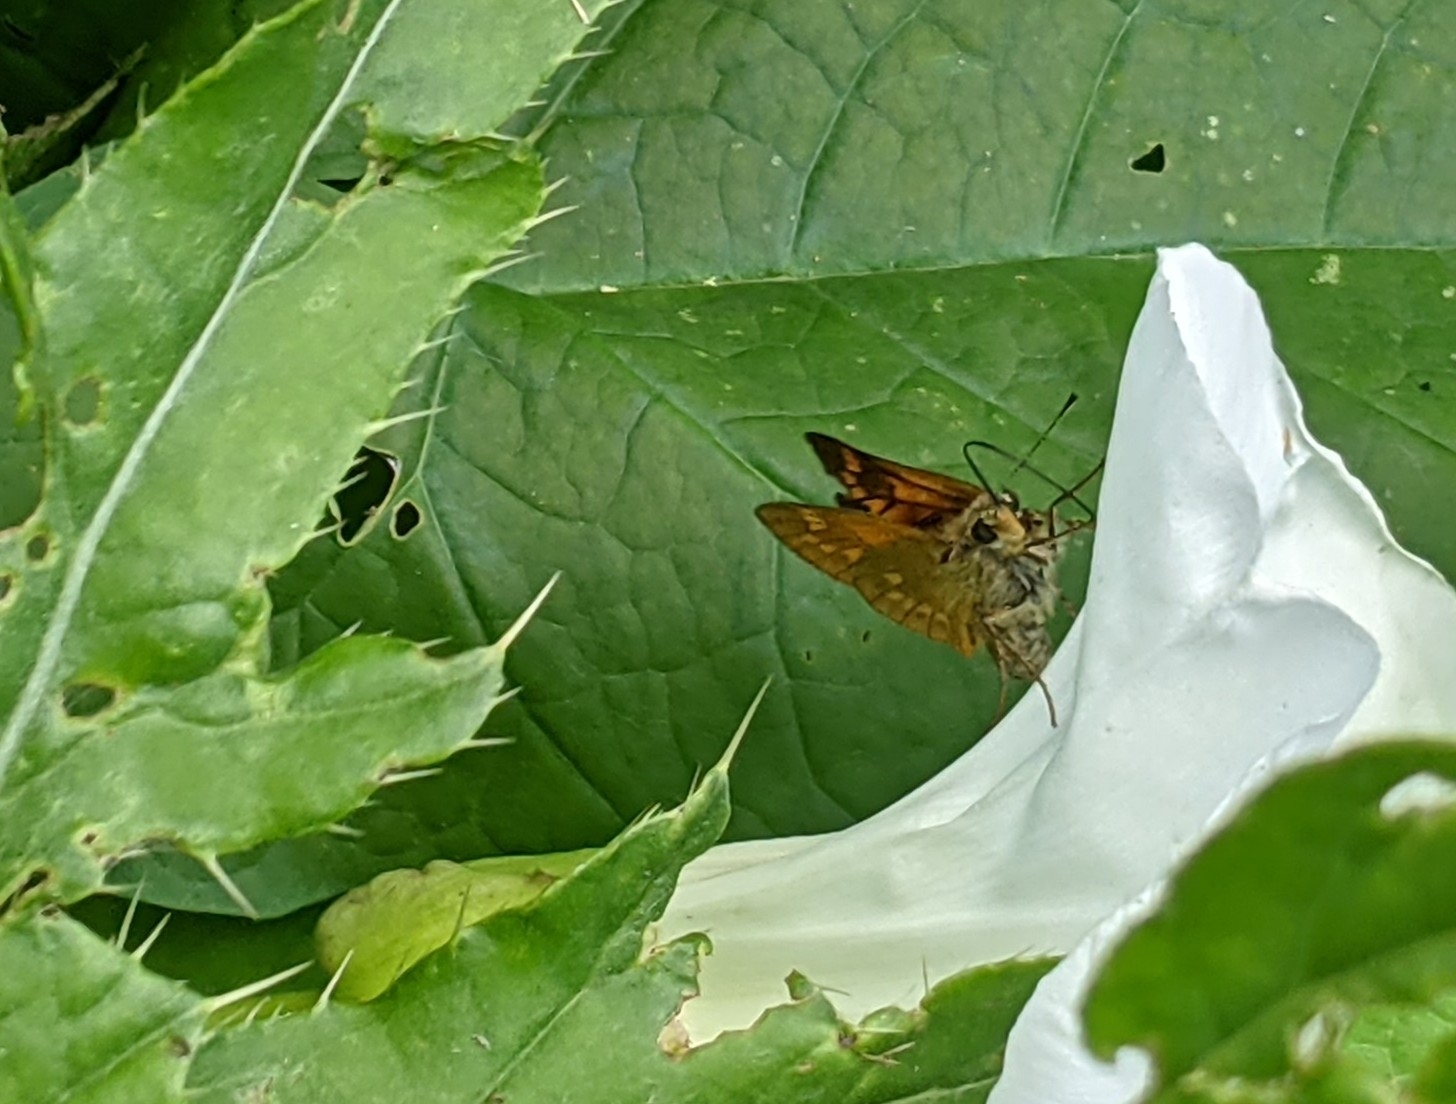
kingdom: Animalia
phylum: Arthropoda
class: Insecta
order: Lepidoptera
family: Hesperiidae
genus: Ochlodes
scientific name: Ochlodes venata
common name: Large skipper
